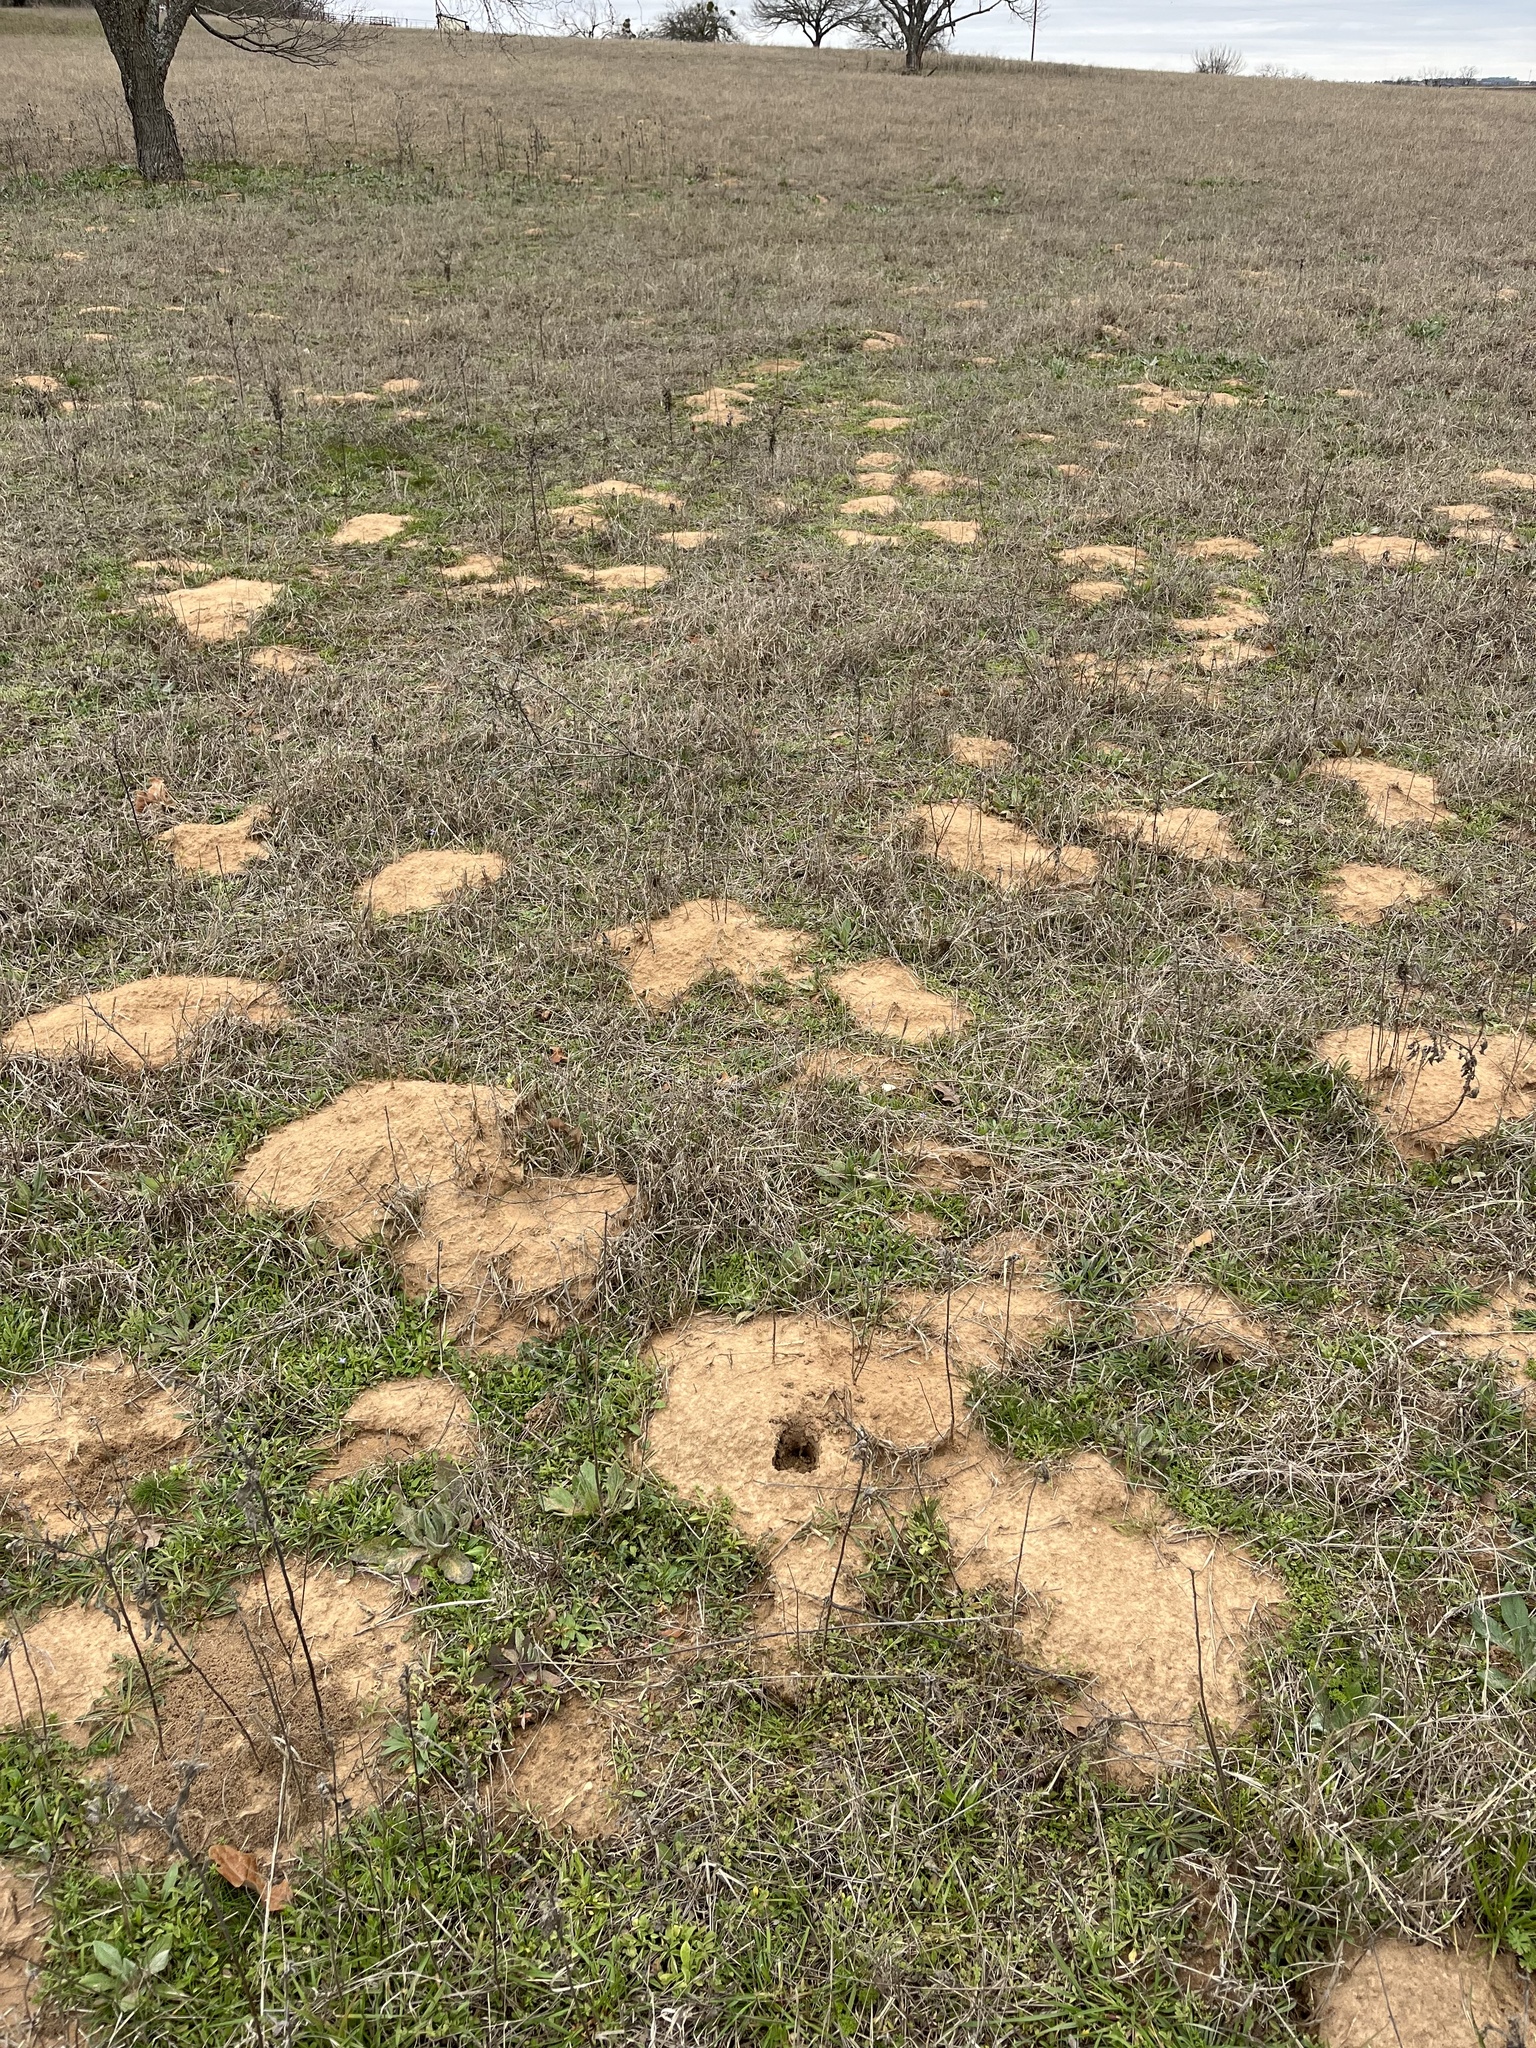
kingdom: Animalia
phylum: Chordata
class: Mammalia
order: Rodentia
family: Geomyidae
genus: Geomys
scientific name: Geomys texensis
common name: Llano pocket gopher
